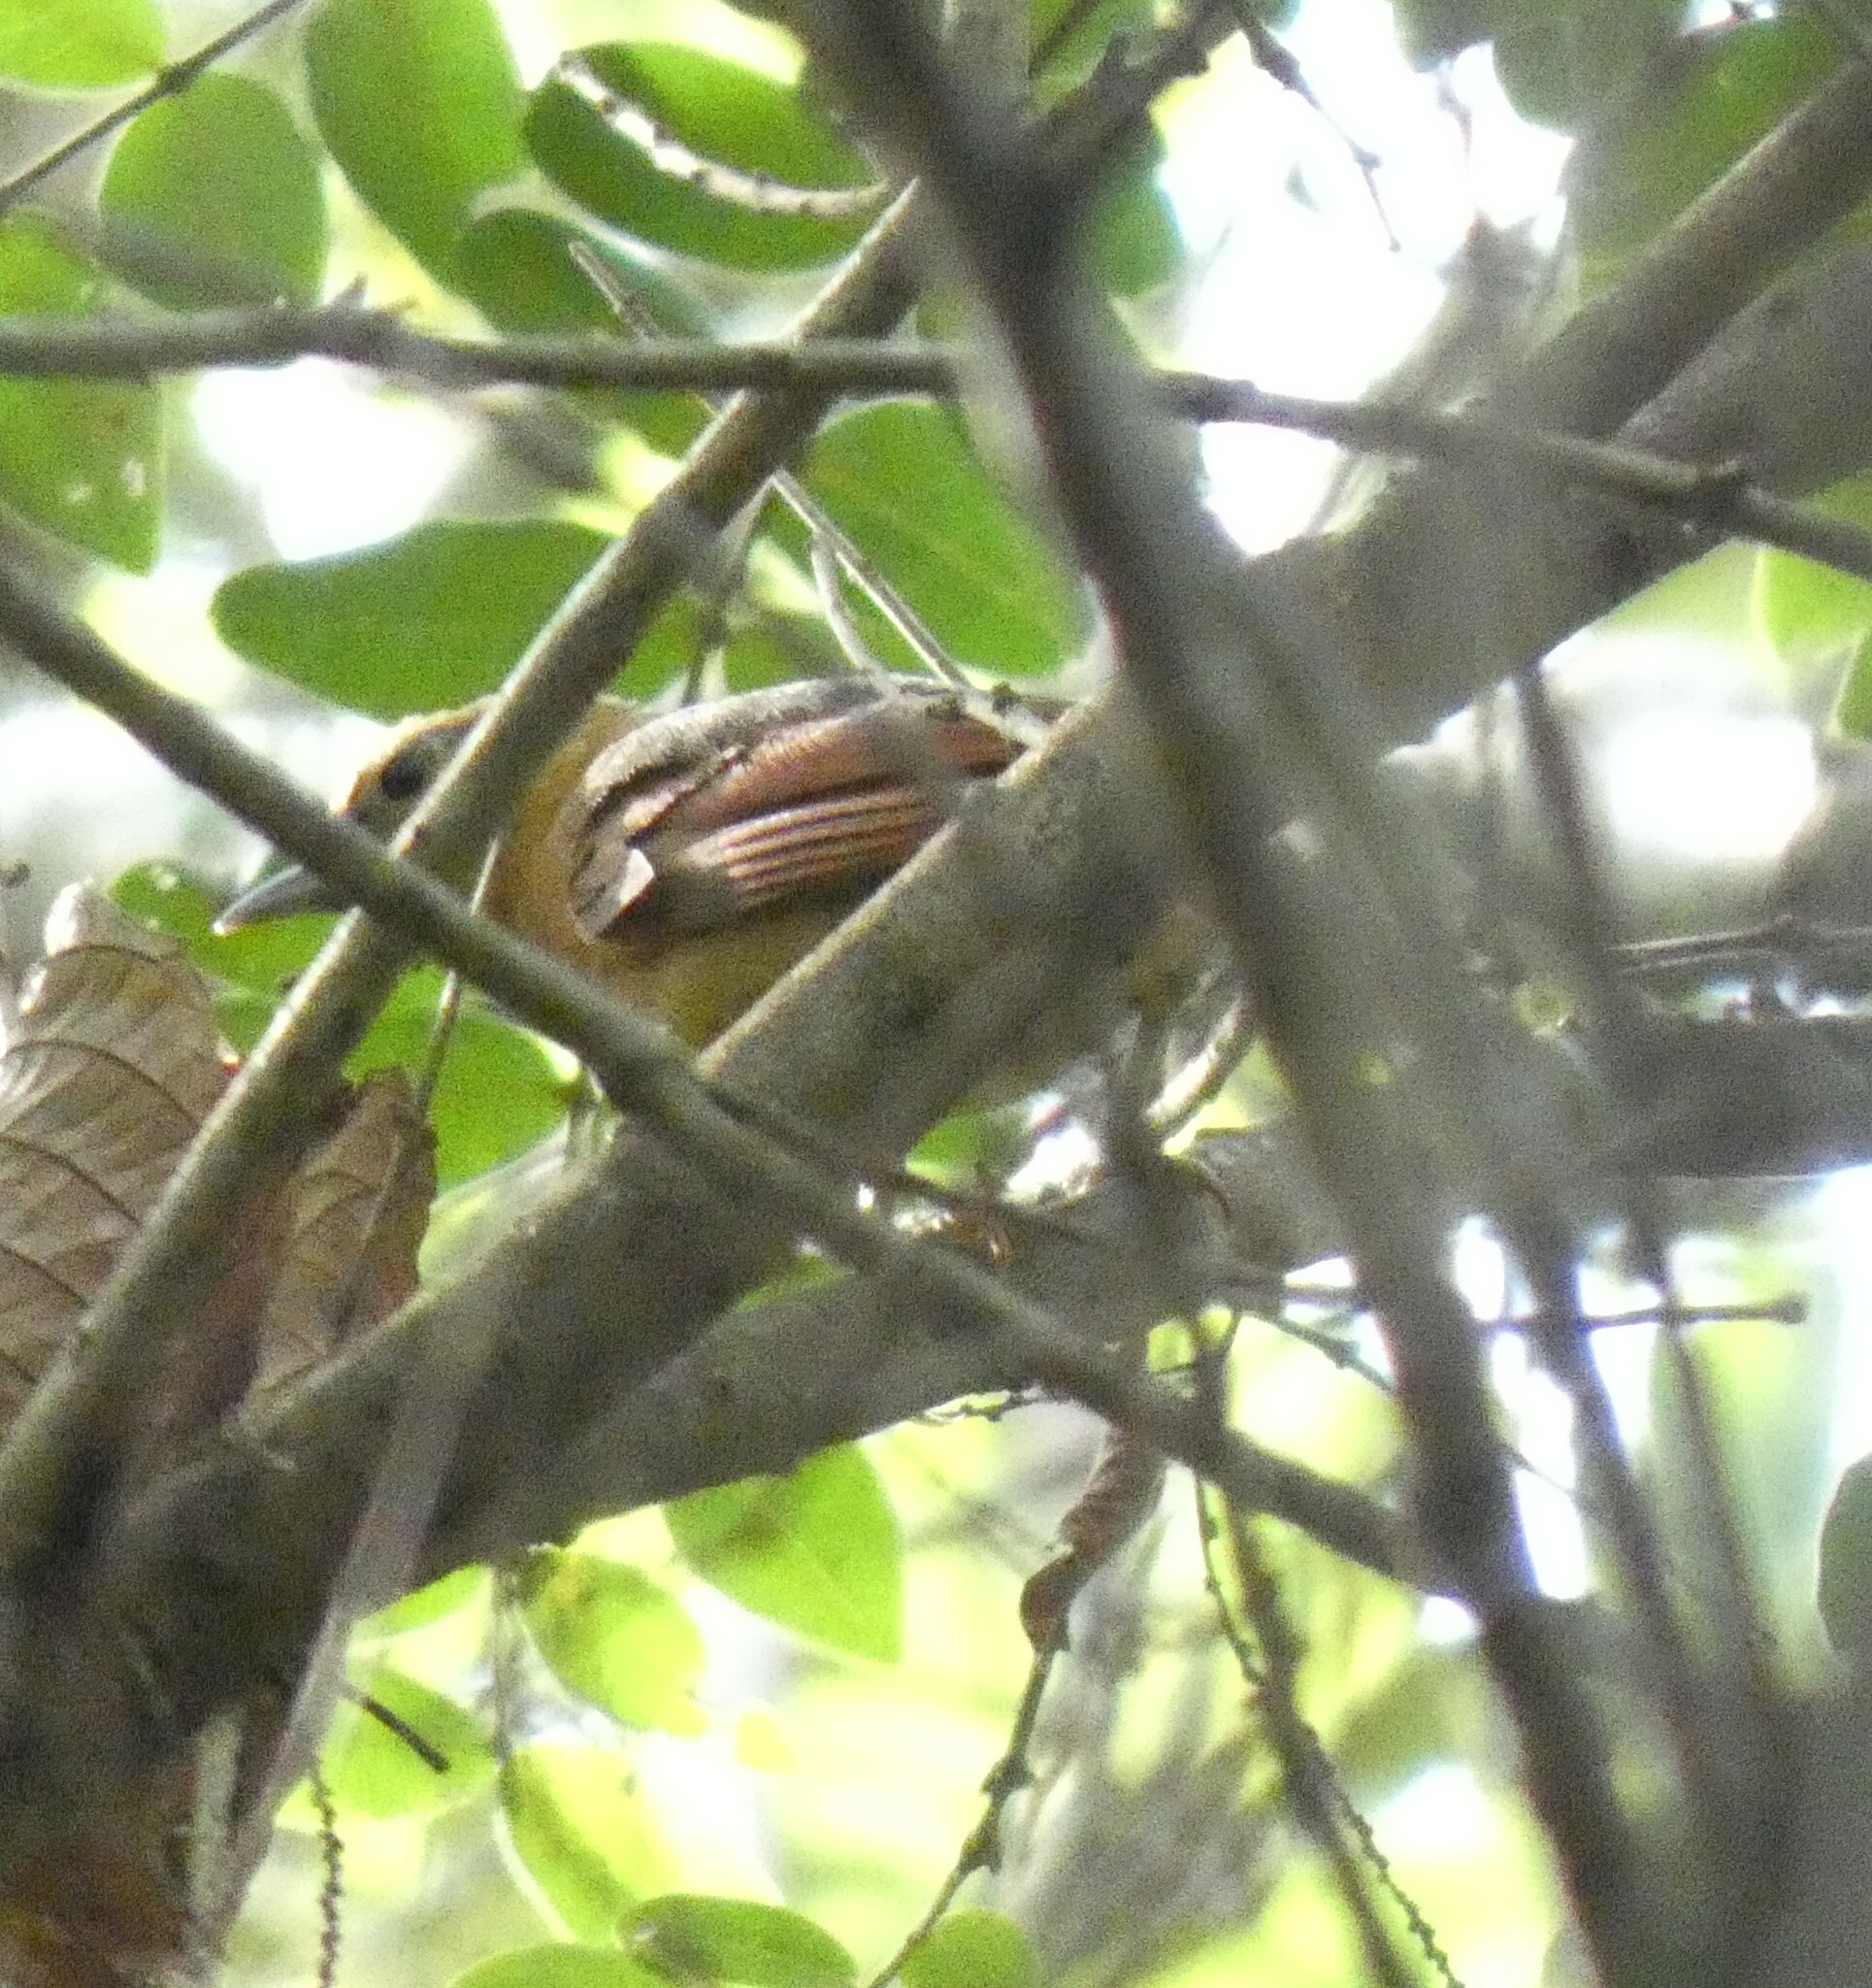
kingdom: Animalia
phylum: Chordata
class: Aves
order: Passeriformes
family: Furnariidae
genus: Philydor
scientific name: Philydor rufum
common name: Buff-fronted foliage-gleaner
